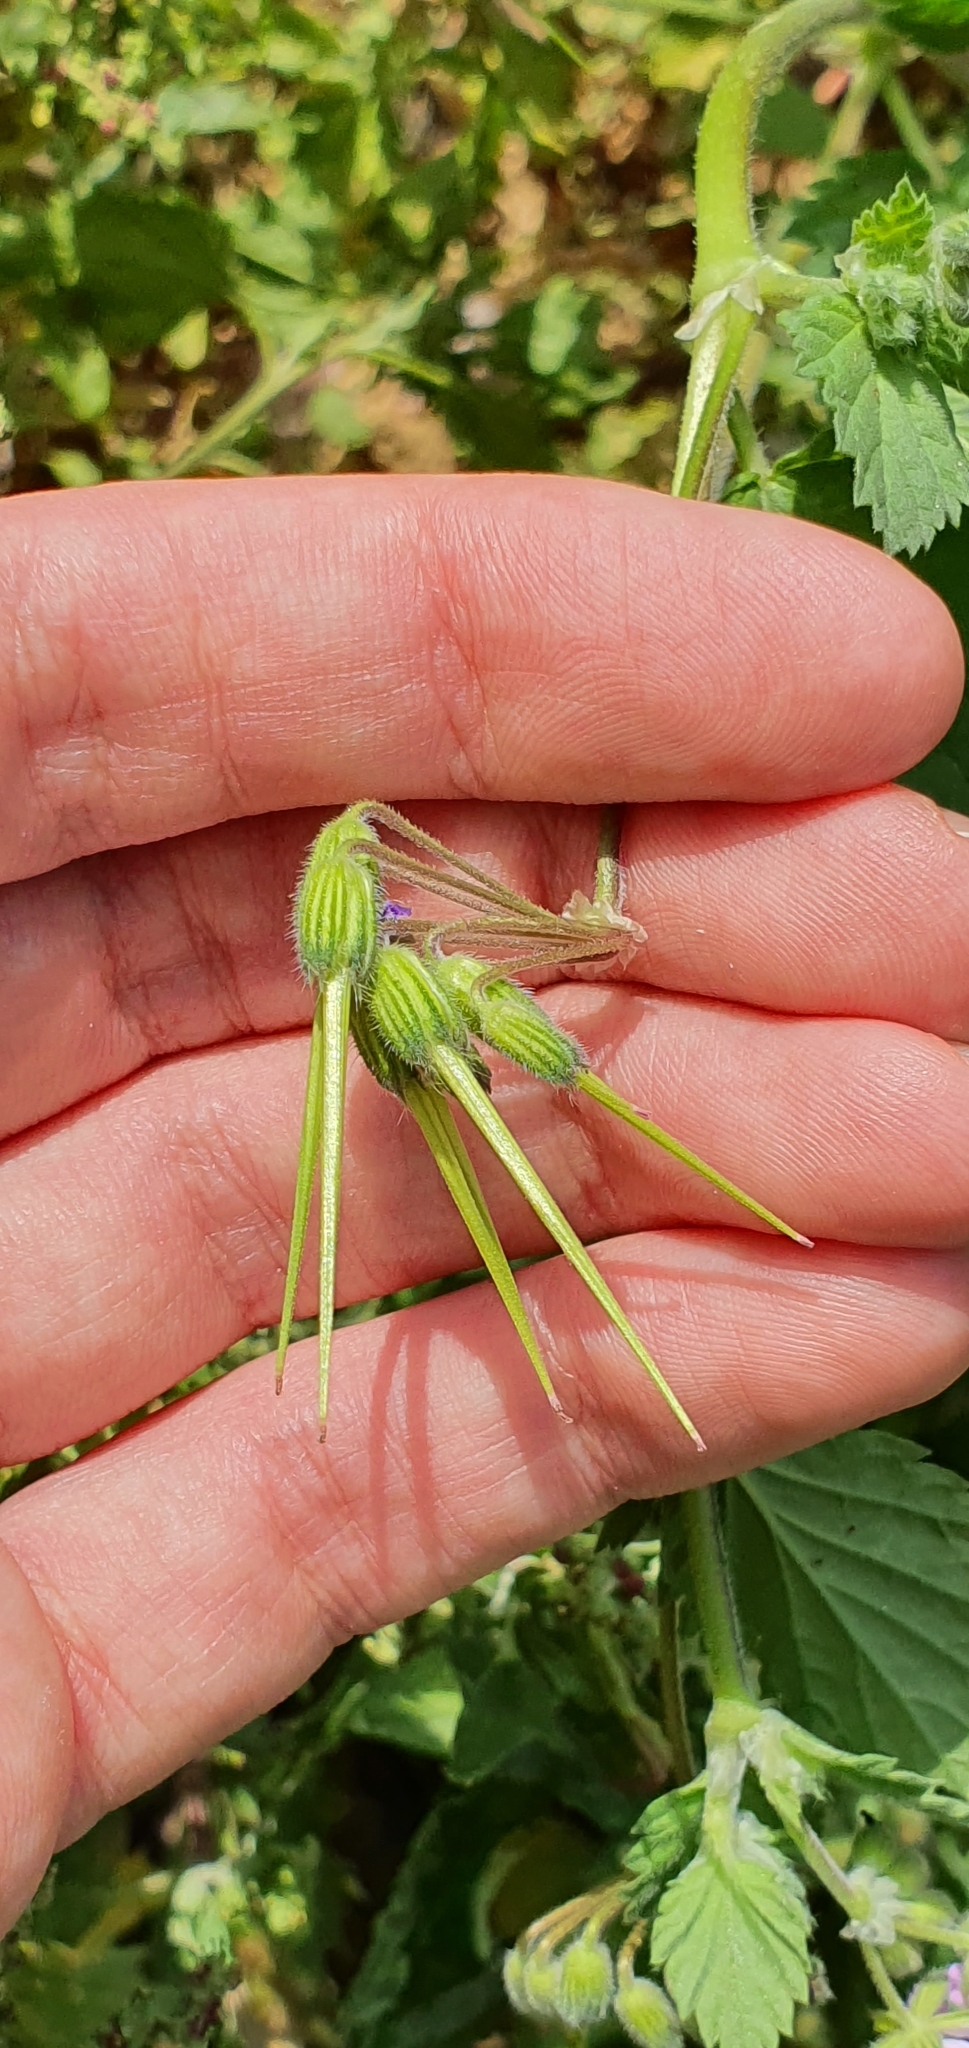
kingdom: Plantae
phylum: Tracheophyta
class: Magnoliopsida
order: Geraniales
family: Geraniaceae
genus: Erodium
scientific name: Erodium malacoides
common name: Soft stork's-bill
